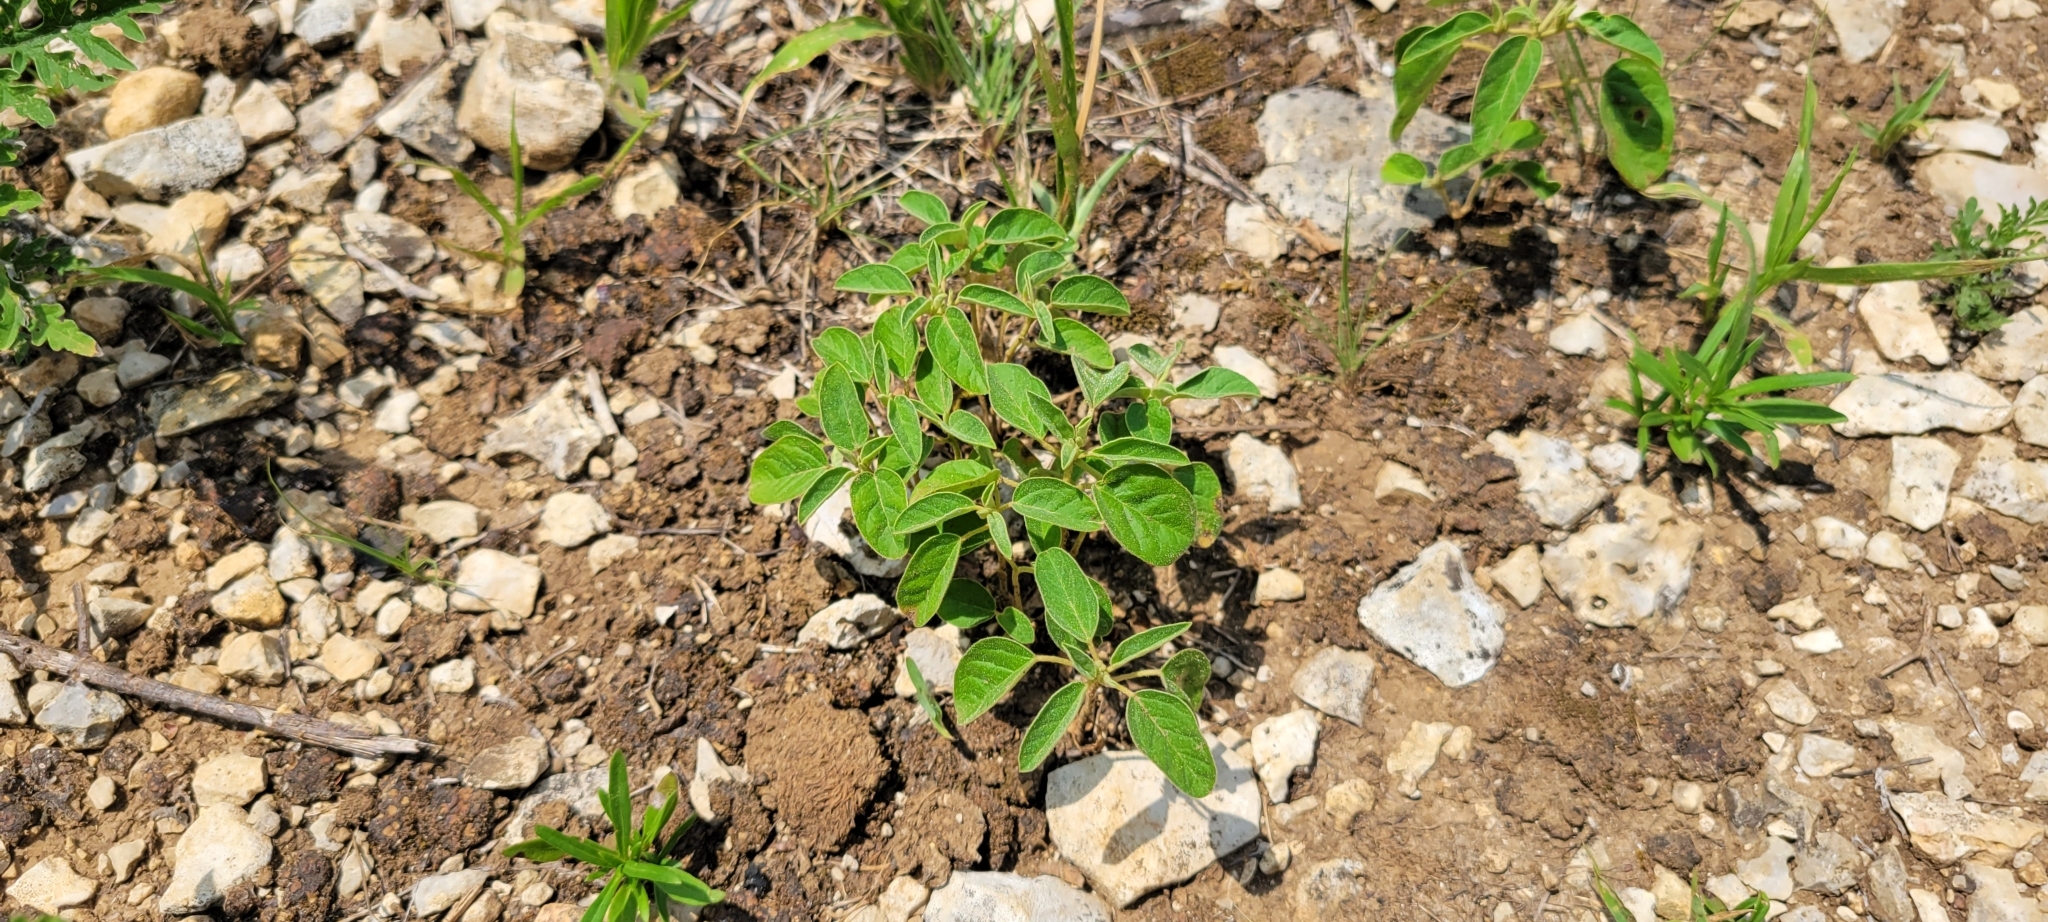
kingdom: Plantae
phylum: Tracheophyta
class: Magnoliopsida
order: Malpighiales
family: Euphorbiaceae
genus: Croton
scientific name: Croton monanthogynus
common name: One-seed croton
